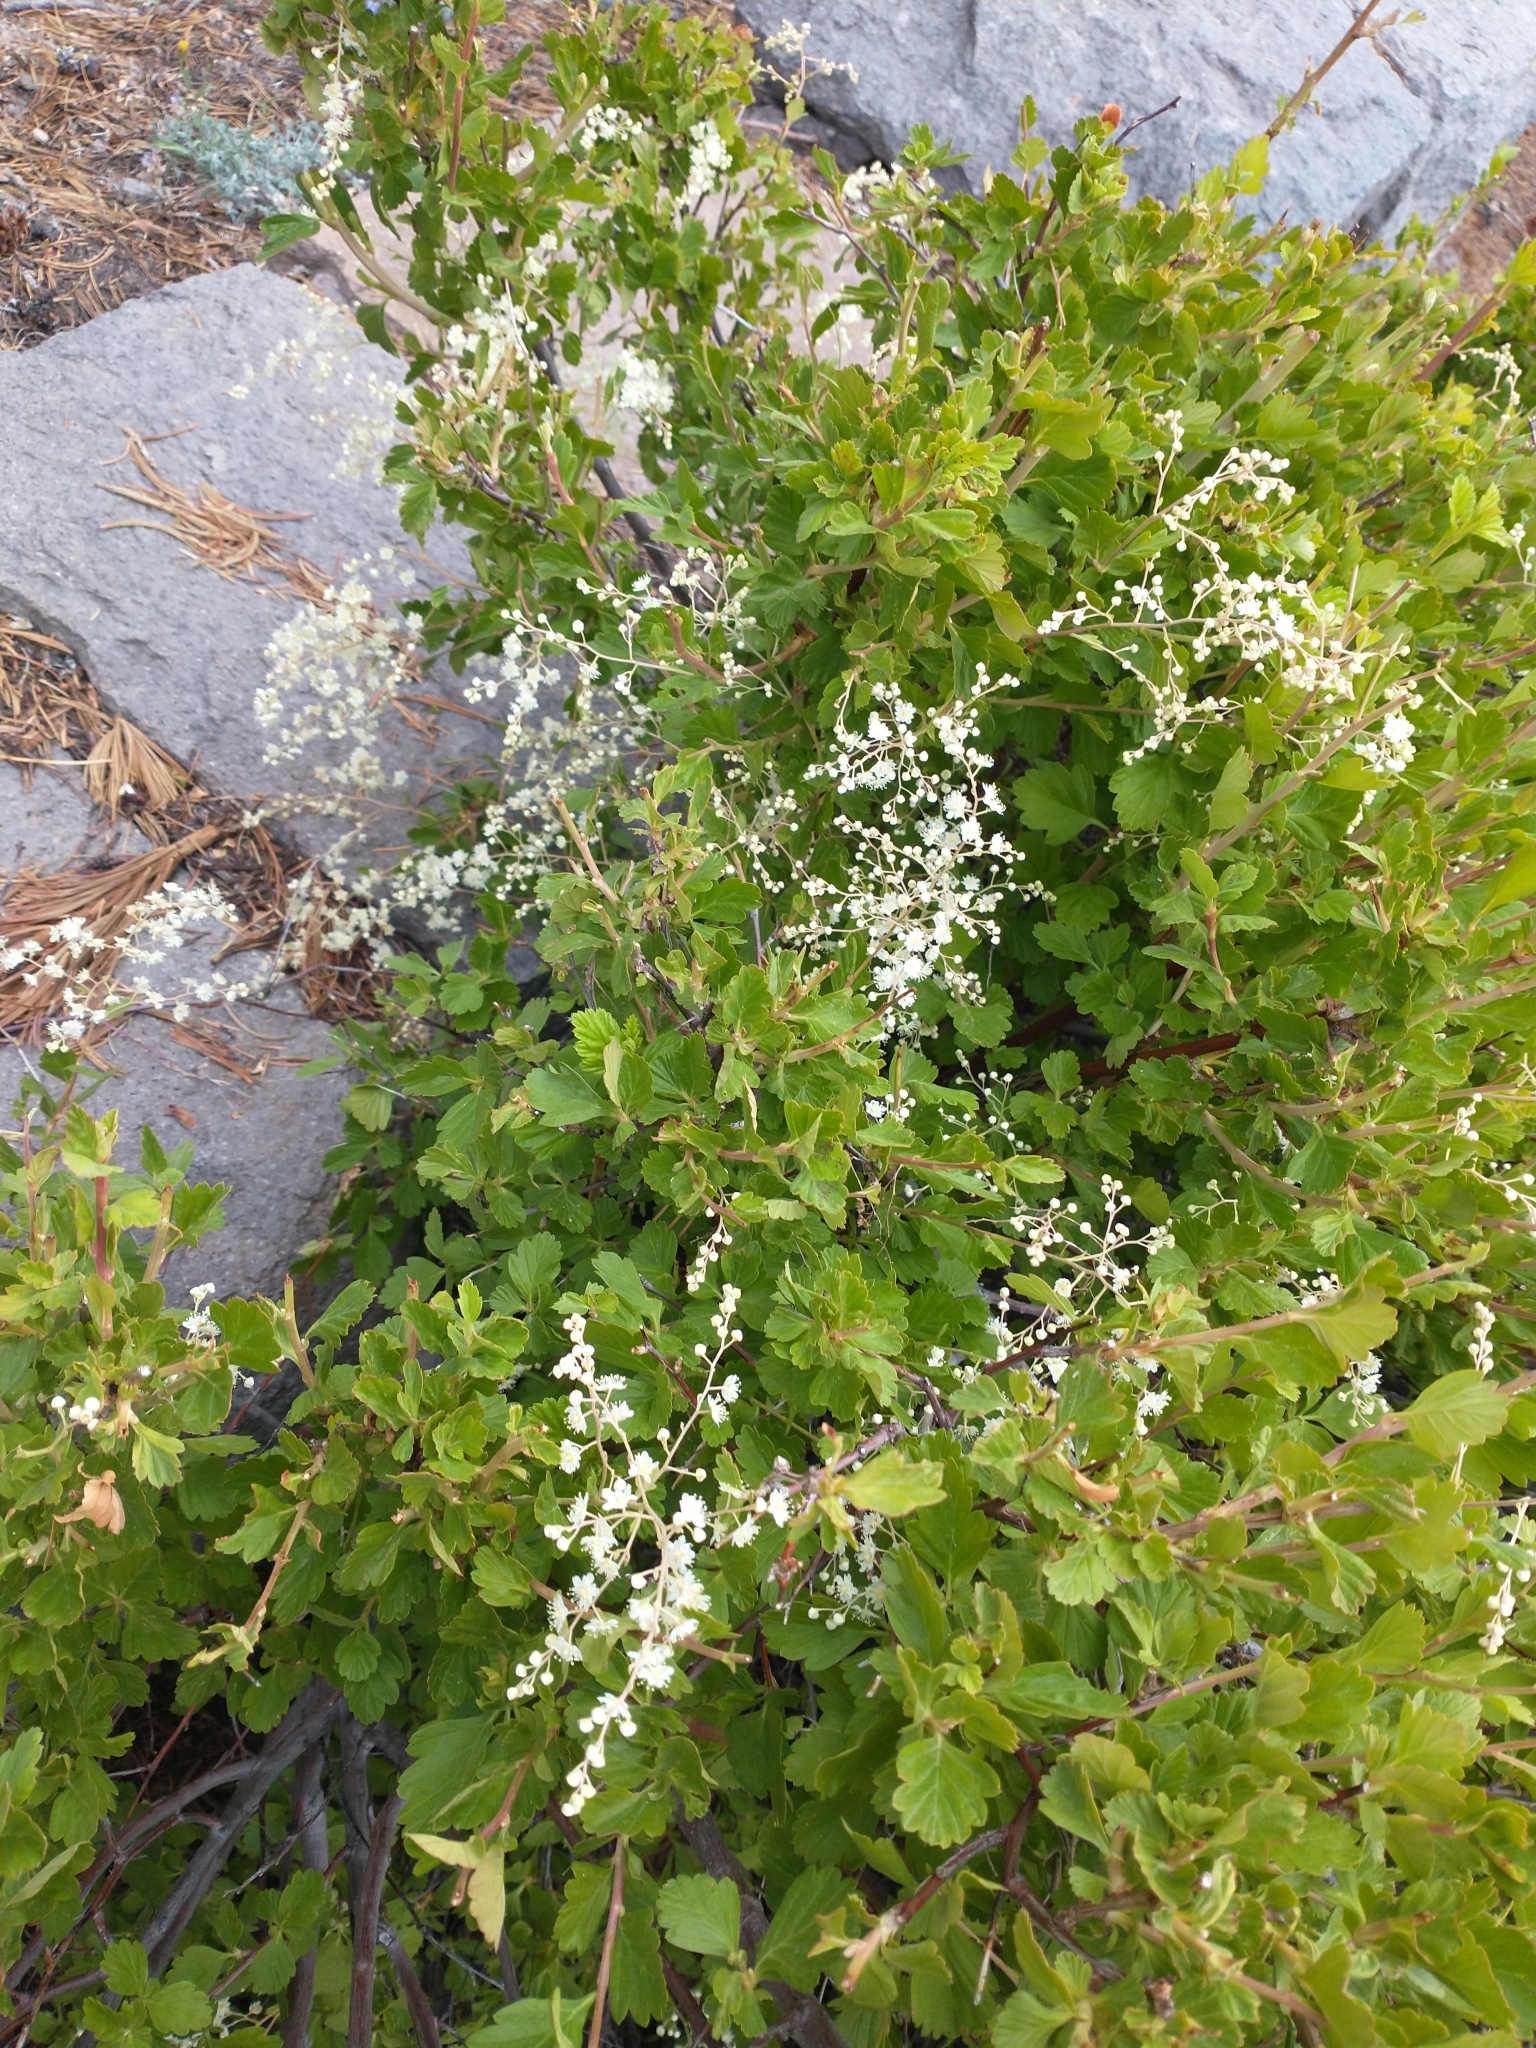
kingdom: Plantae
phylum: Tracheophyta
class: Magnoliopsida
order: Rosales
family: Rosaceae
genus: Holodiscus
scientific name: Holodiscus discolor
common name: Oceanspray
